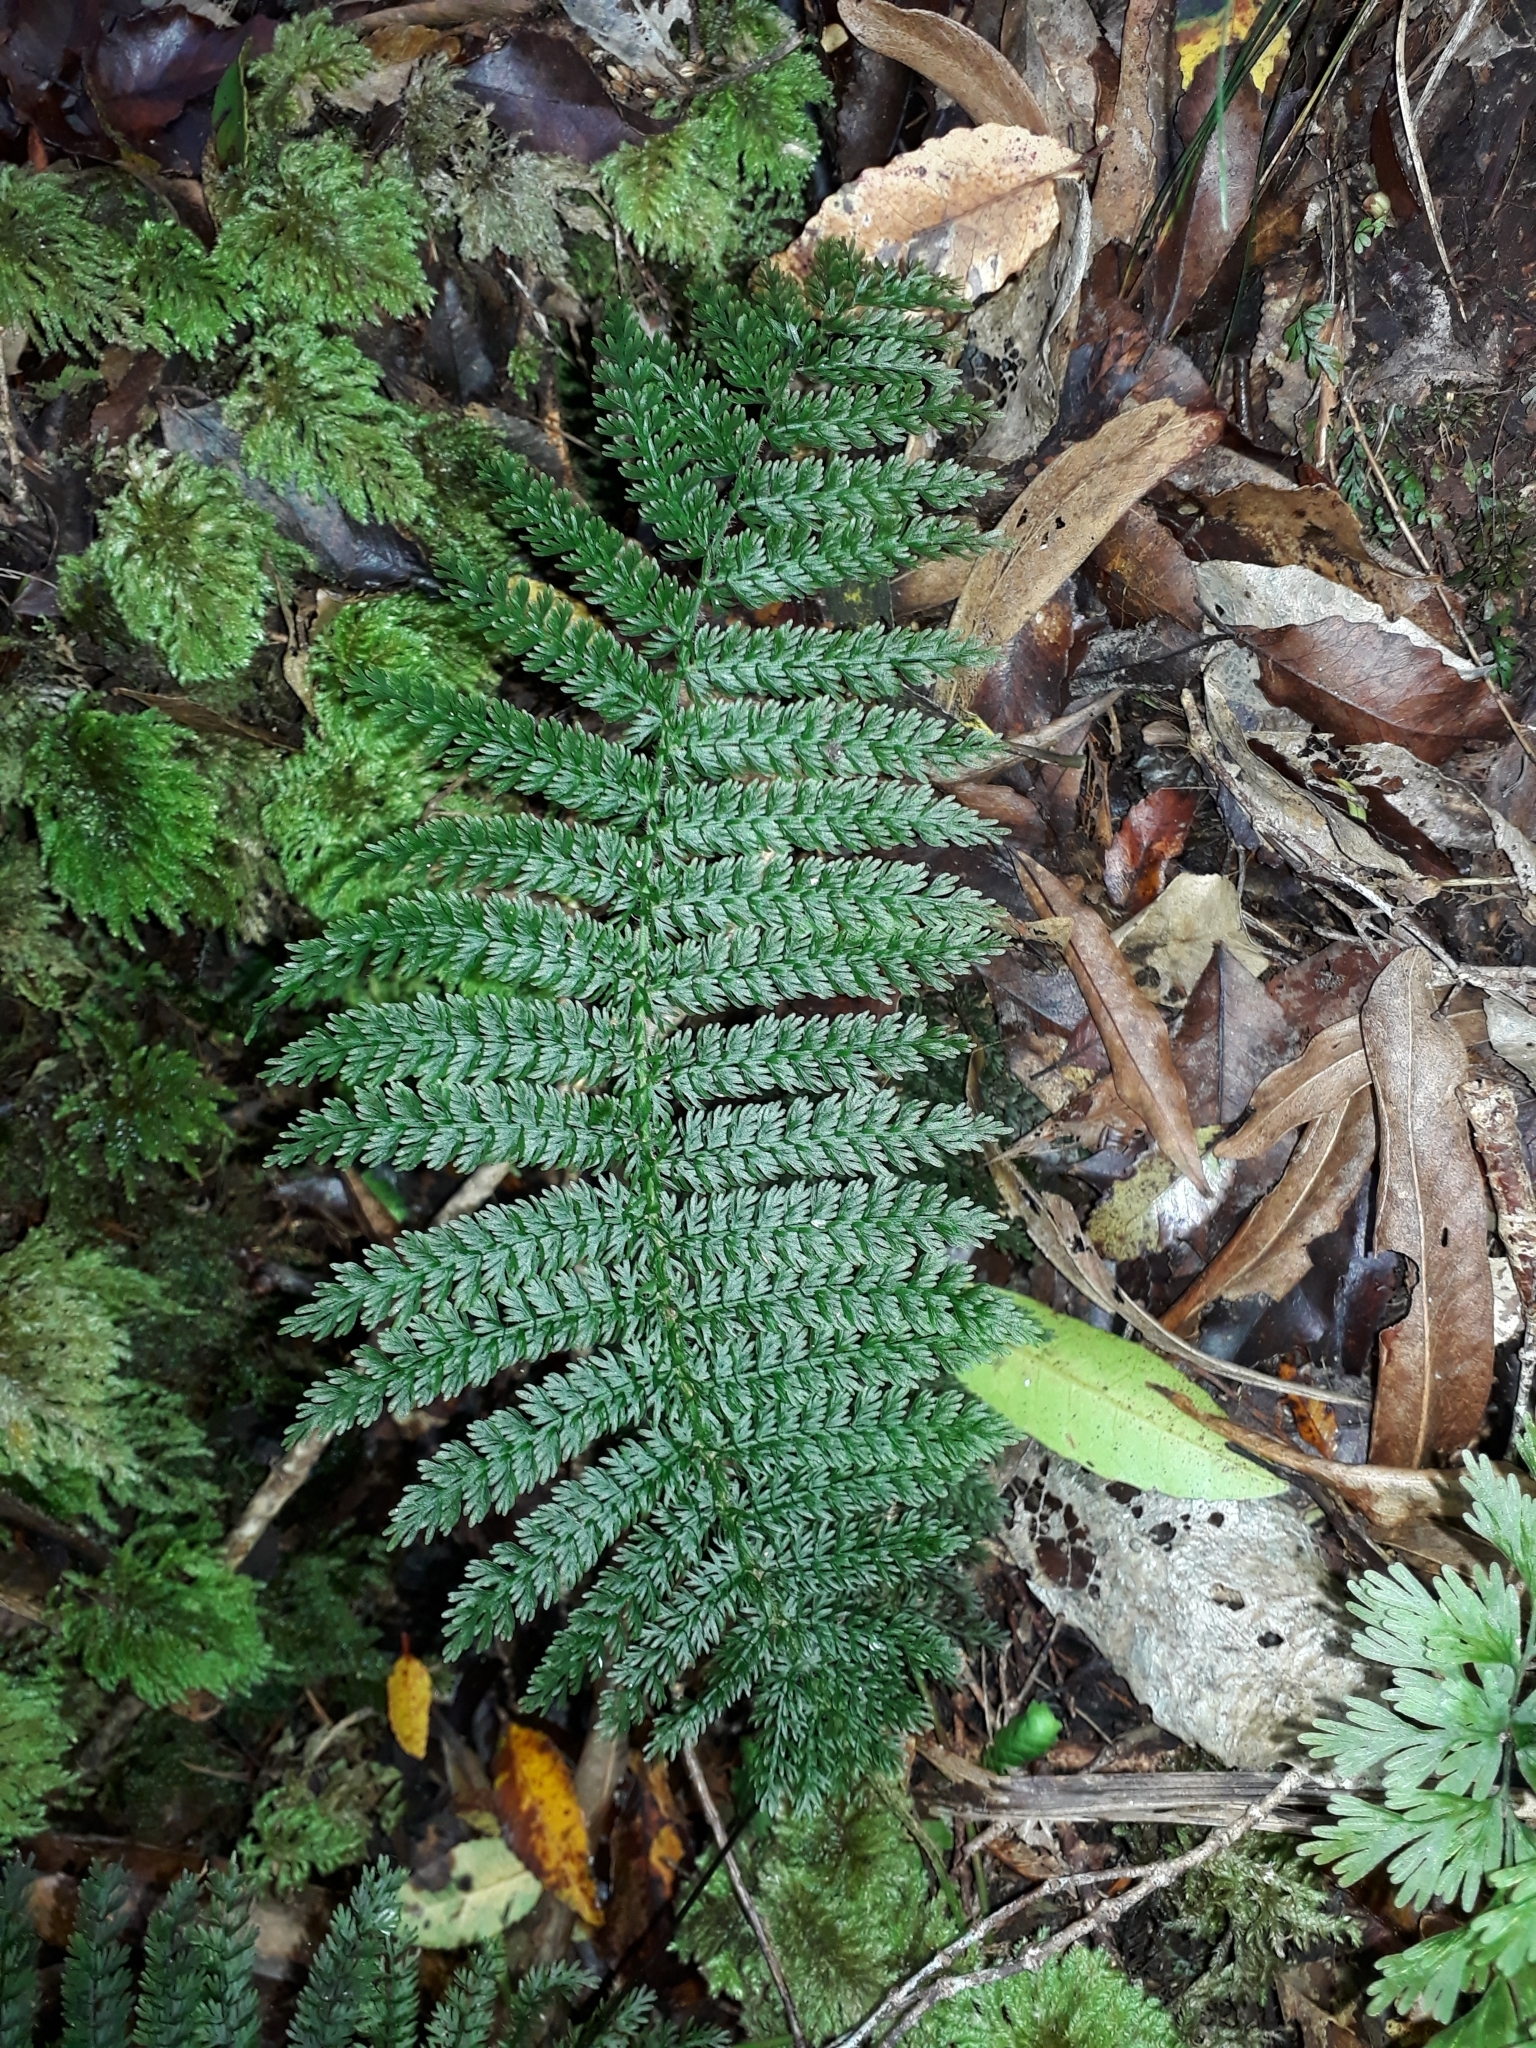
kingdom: Plantae
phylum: Tracheophyta
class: Polypodiopsida
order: Osmundales
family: Osmundaceae
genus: Leptopteris
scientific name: Leptopteris superba
